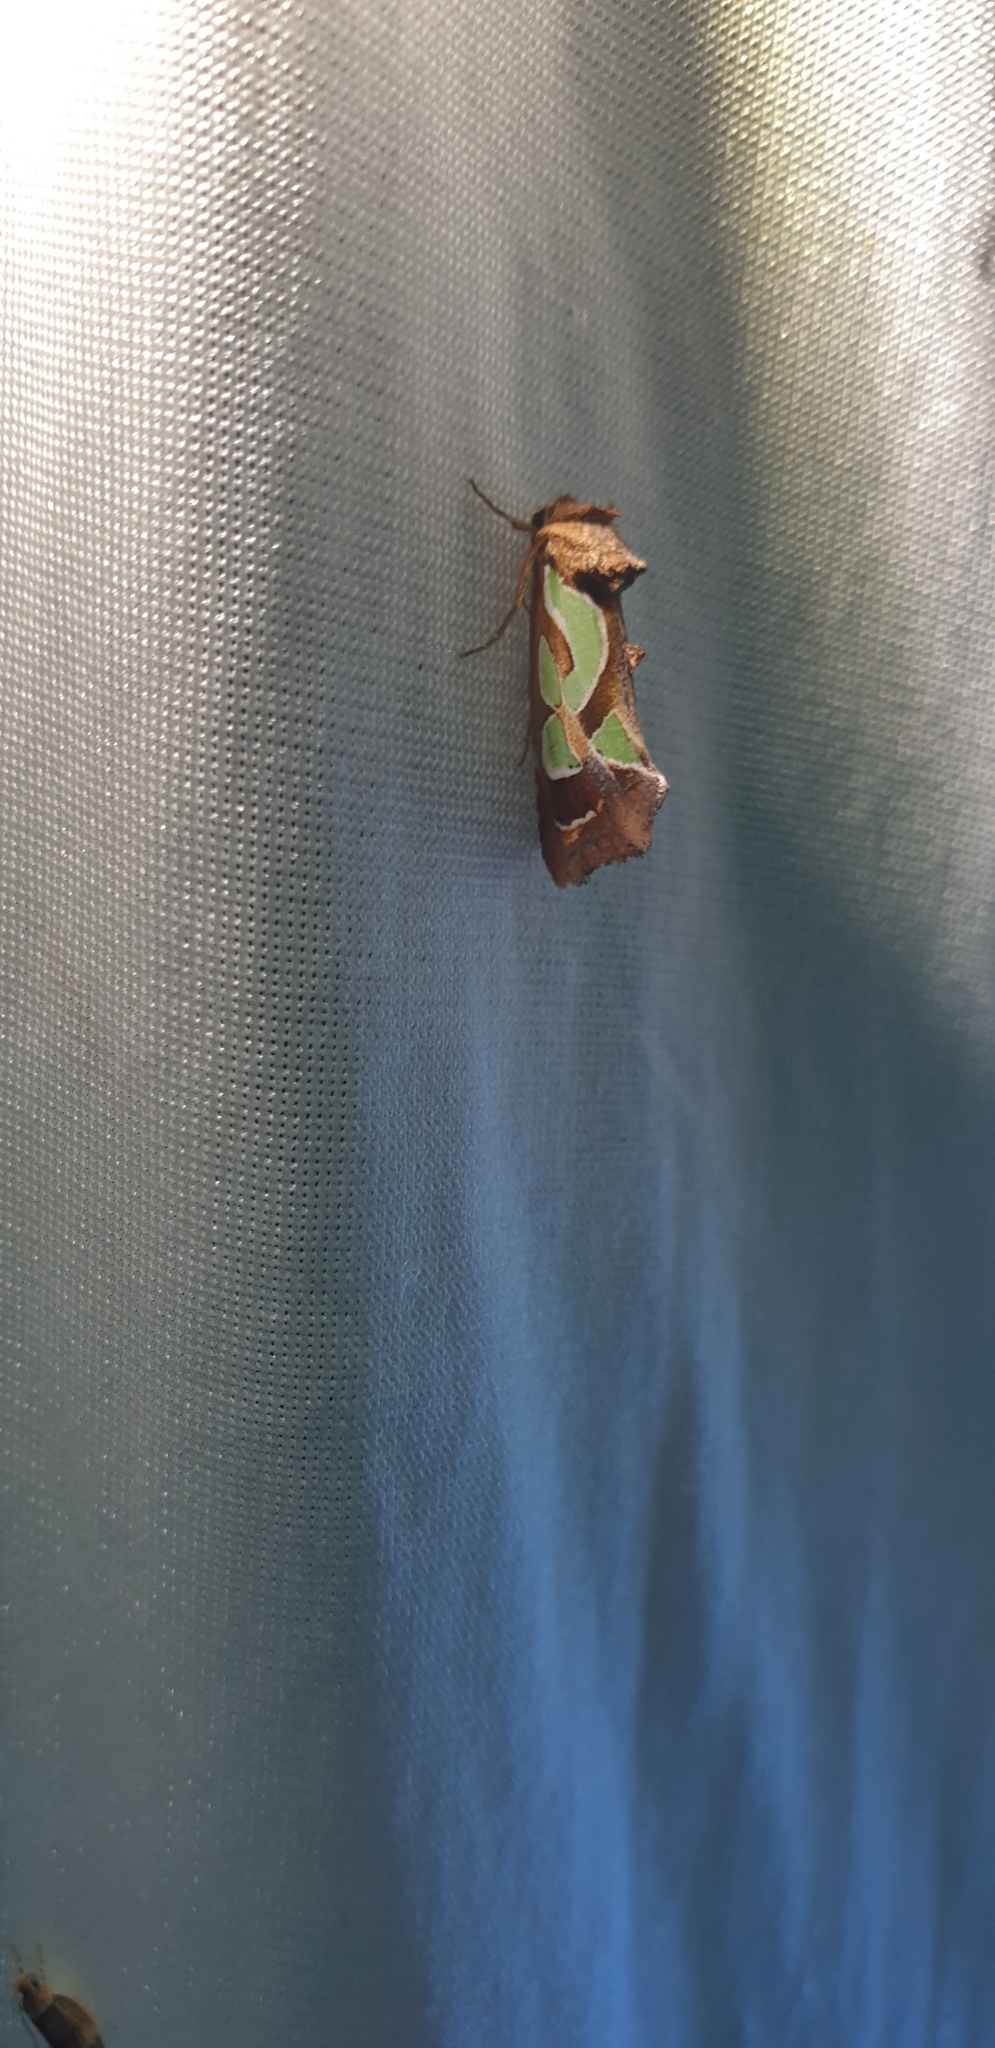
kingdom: Animalia
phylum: Arthropoda
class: Insecta
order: Lepidoptera
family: Noctuidae
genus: Cosmodes
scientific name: Cosmodes elegans
